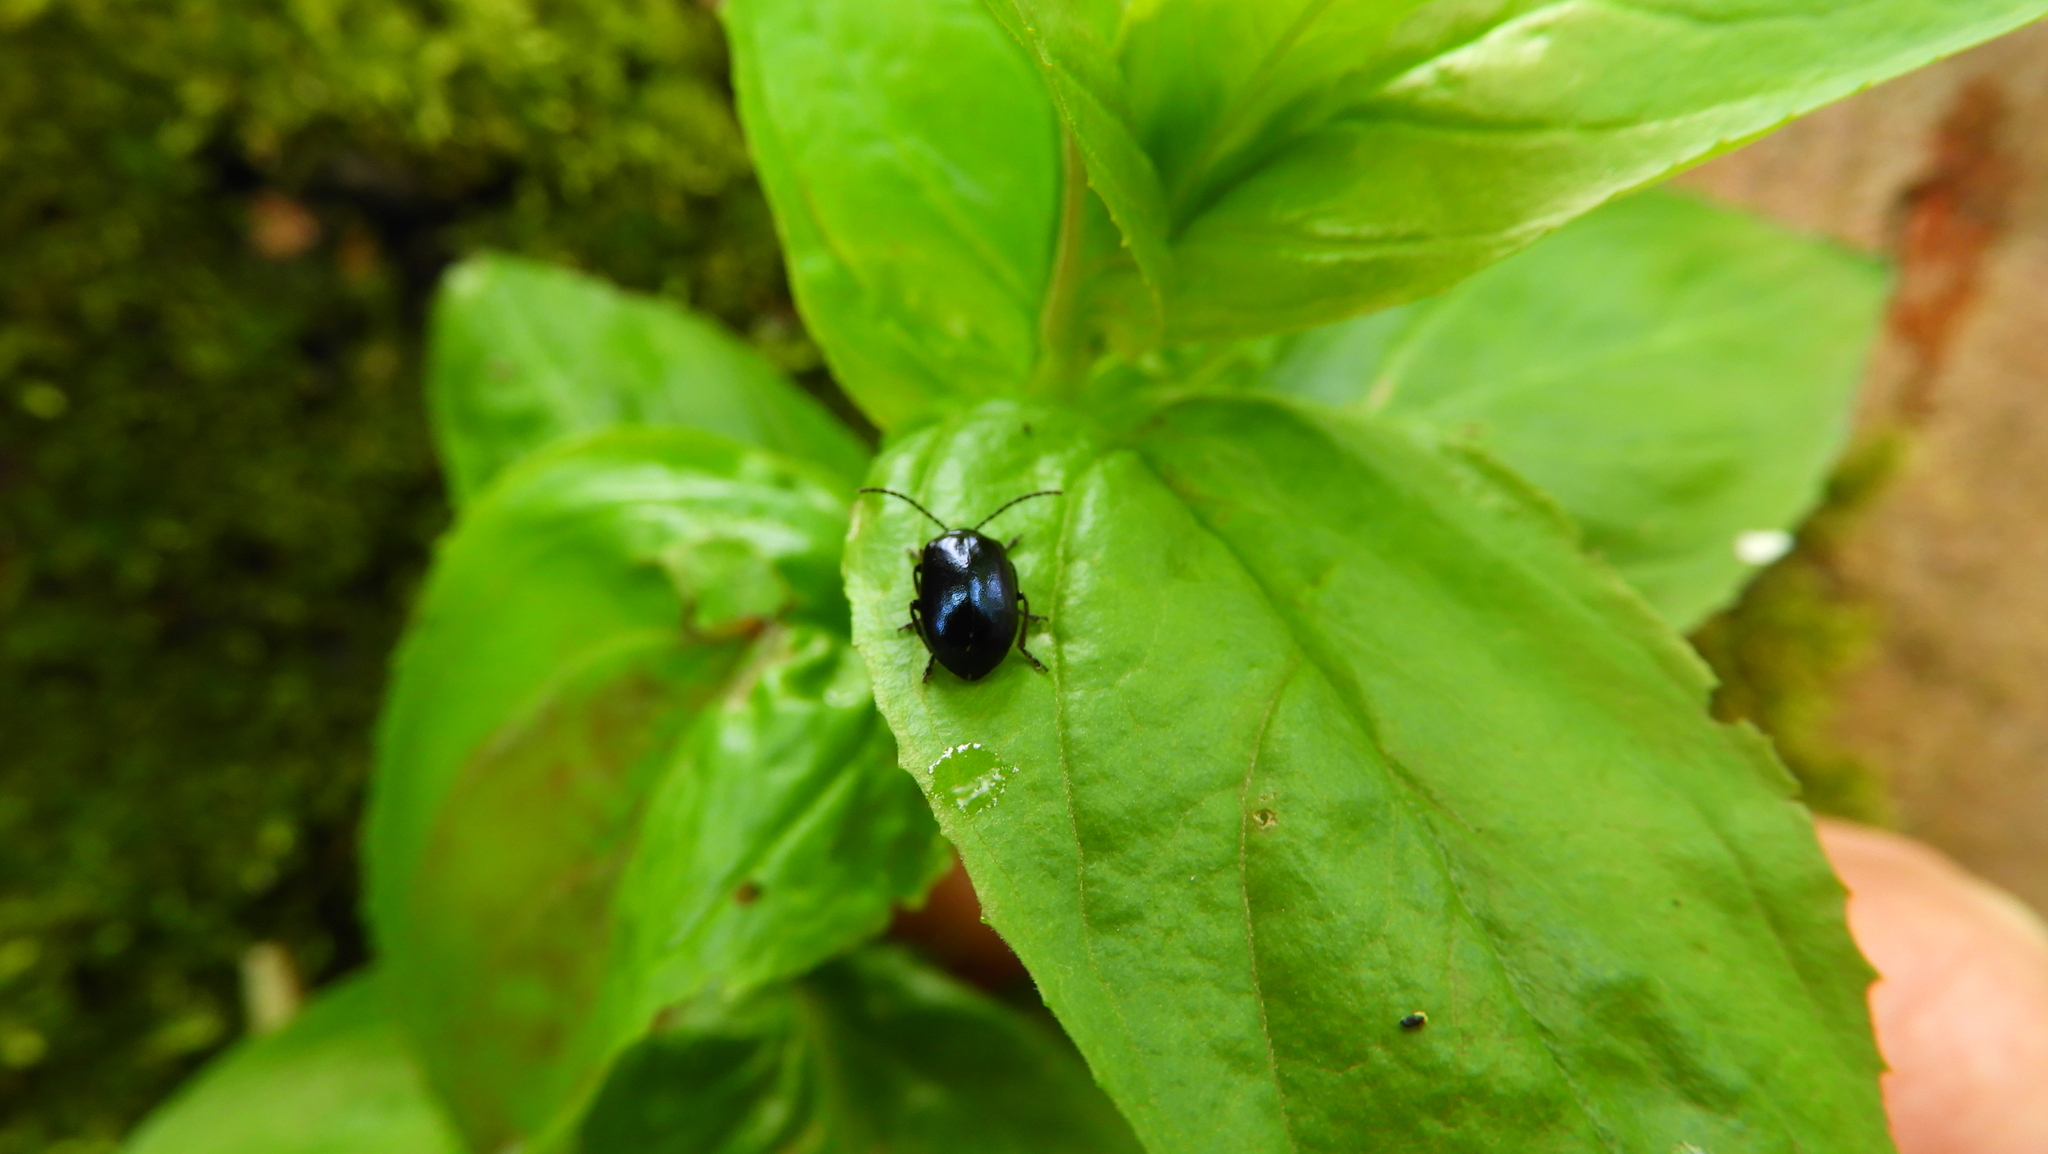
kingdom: Animalia
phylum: Arthropoda
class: Insecta
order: Coleoptera
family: Chrysomelidae
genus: Agelastica
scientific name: Agelastica alni
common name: Alder leaf beetle
